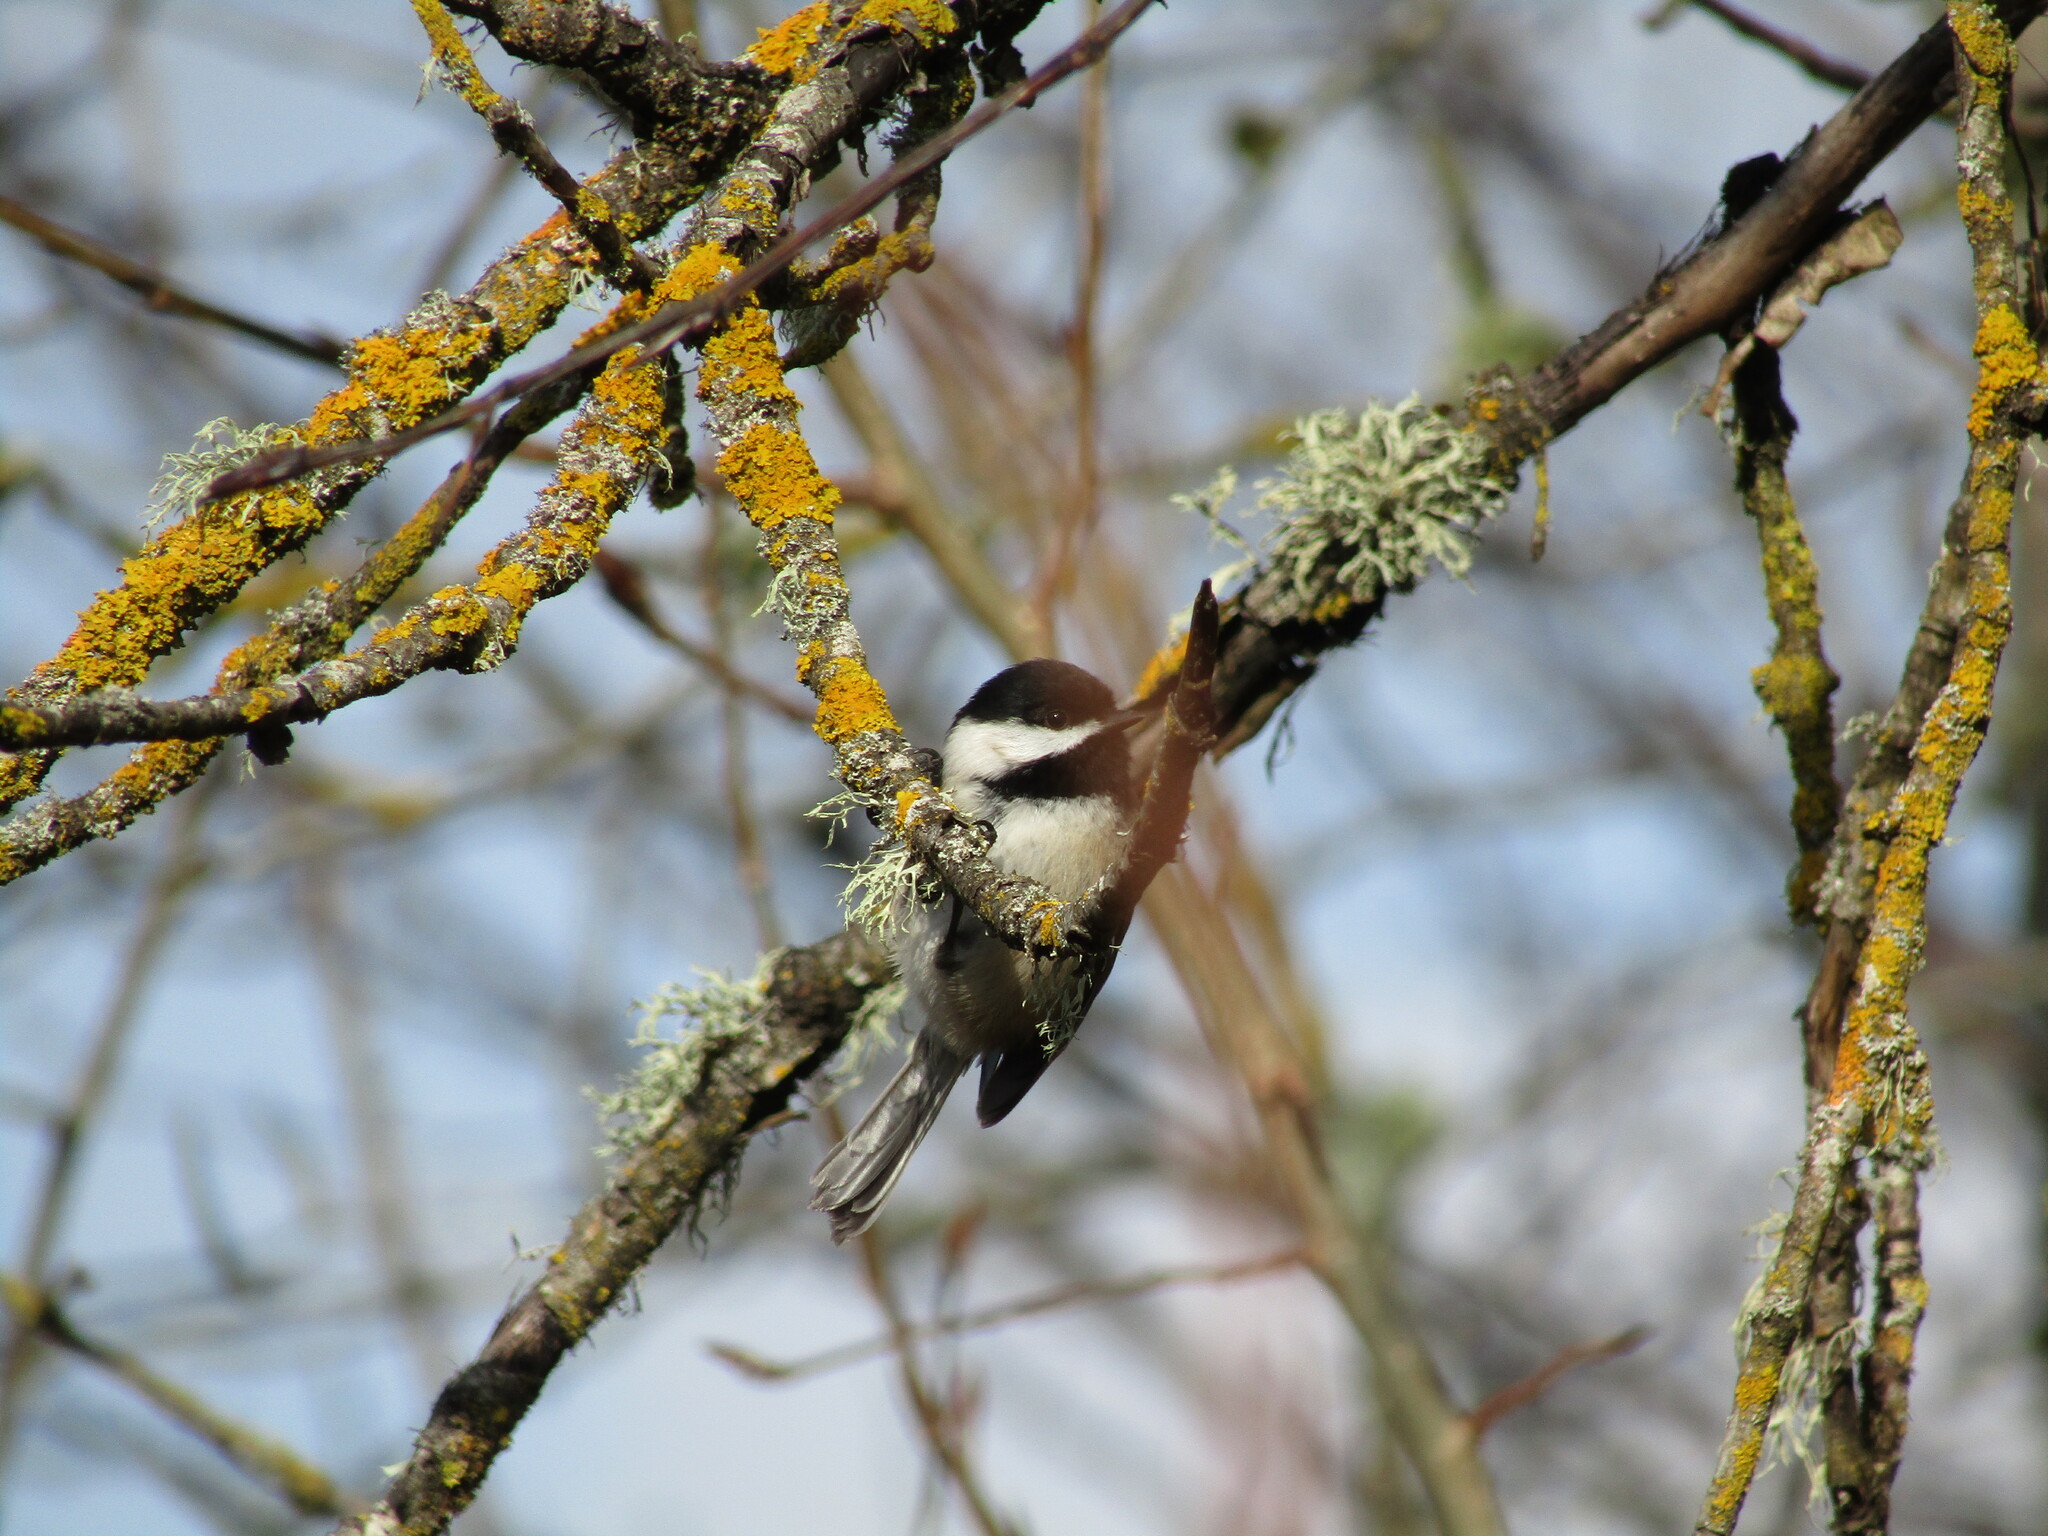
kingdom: Animalia
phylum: Chordata
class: Aves
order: Passeriformes
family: Paridae
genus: Poecile
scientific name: Poecile atricapillus
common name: Black-capped chickadee
